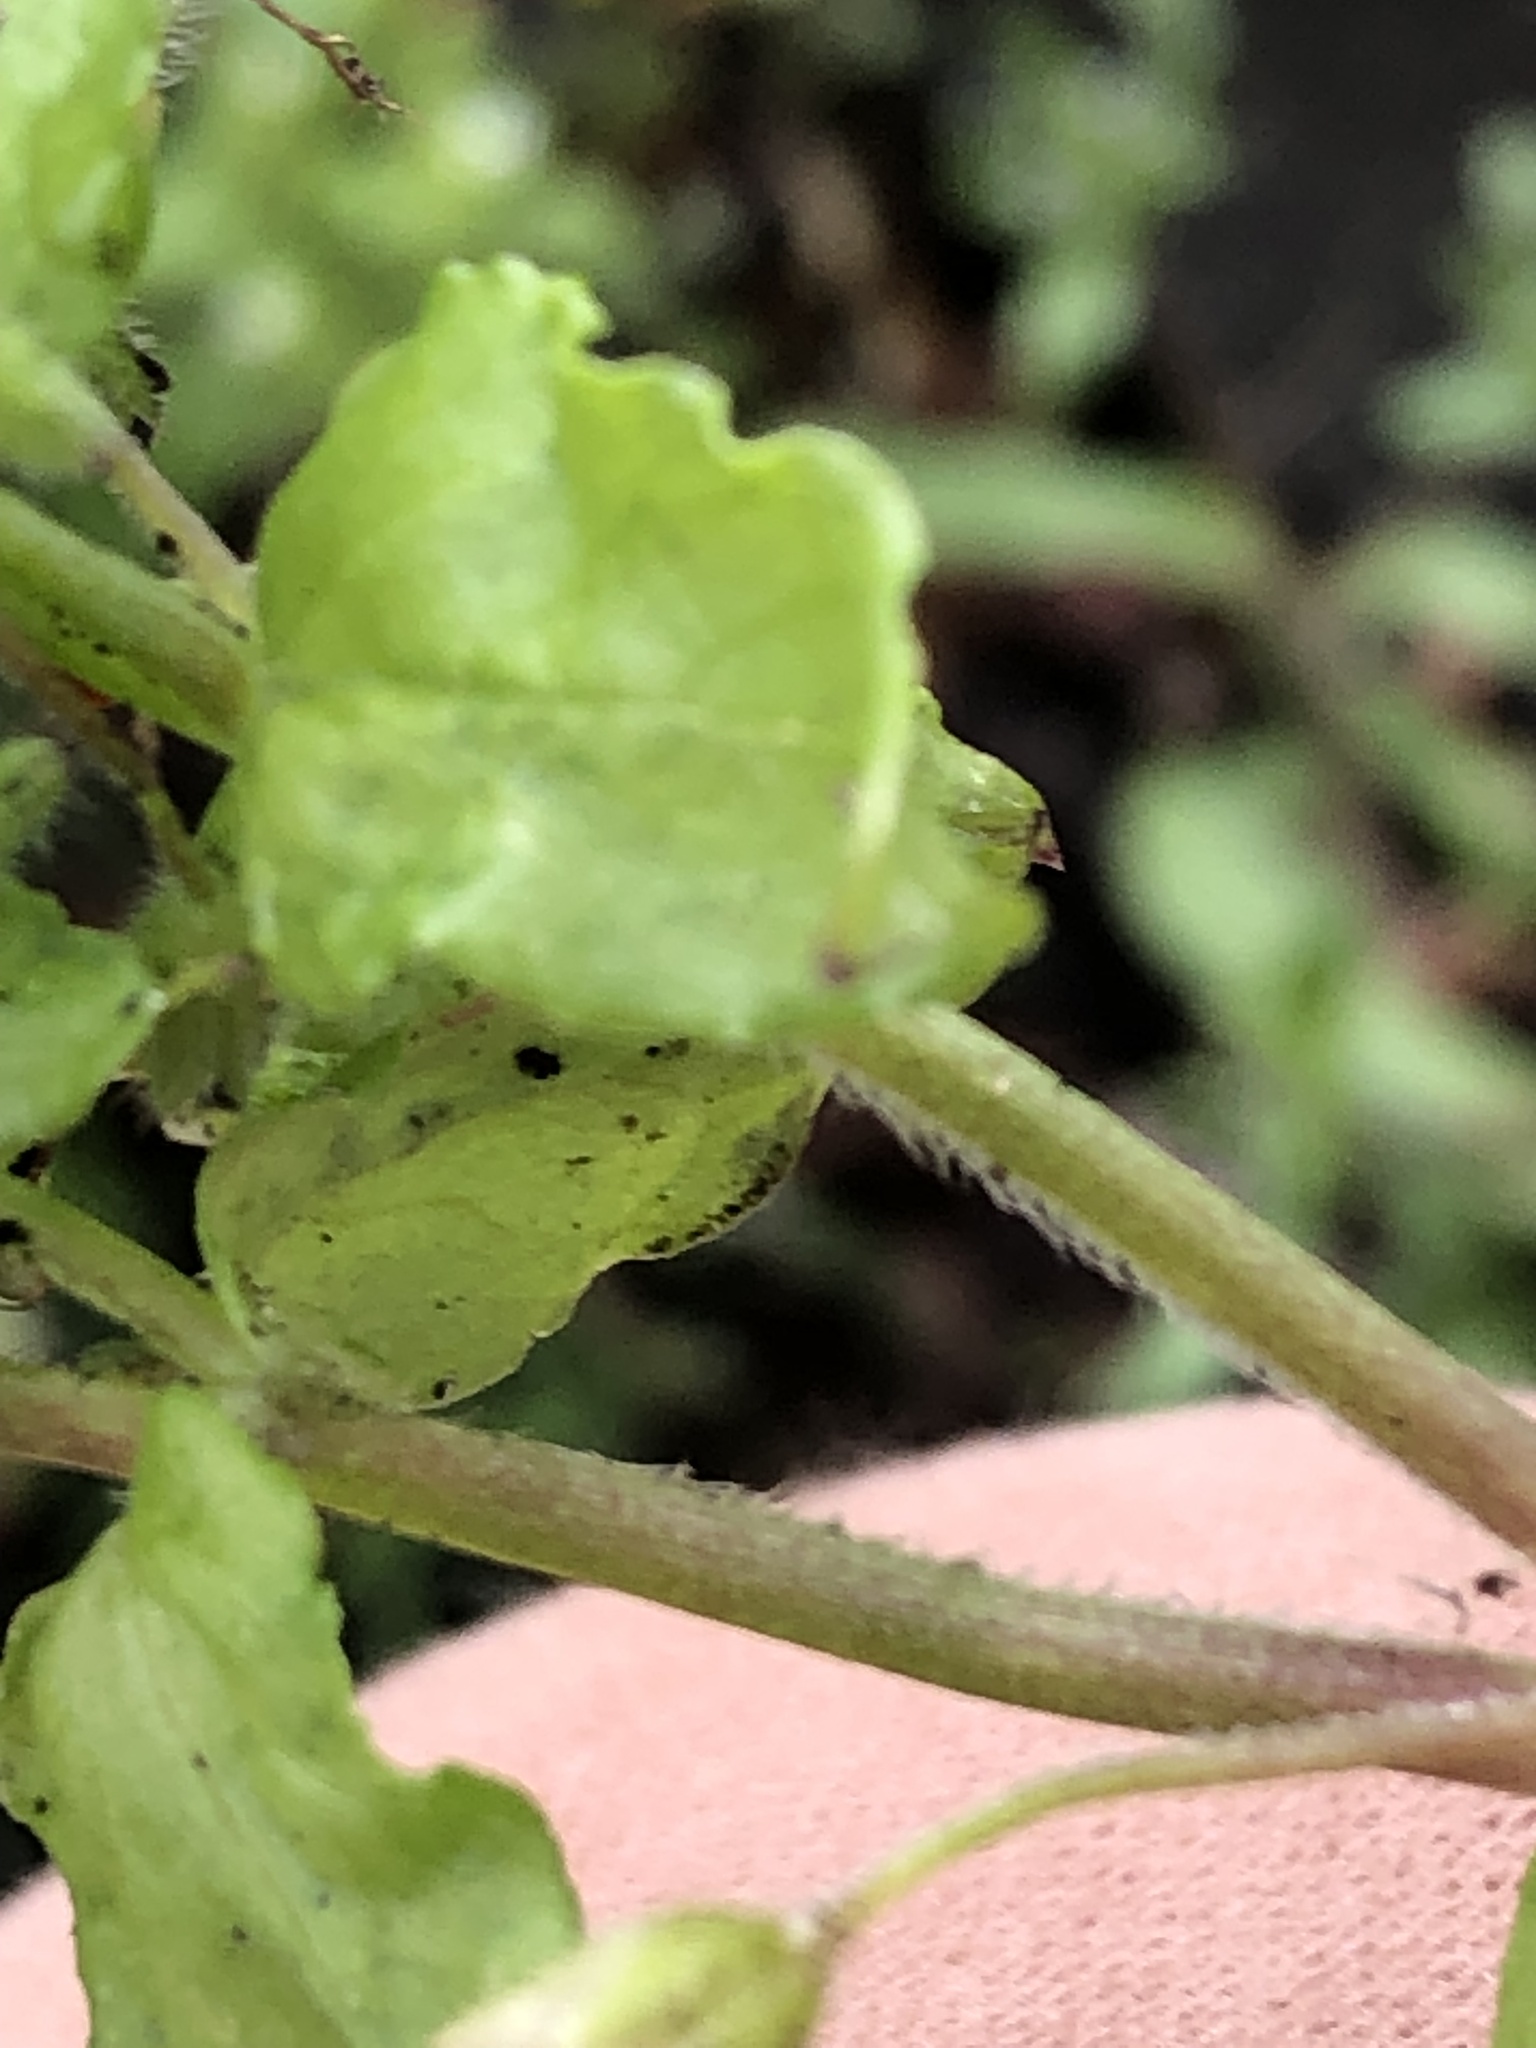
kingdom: Plantae
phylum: Tracheophyta
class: Magnoliopsida
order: Caryophyllales
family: Caryophyllaceae
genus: Stellaria
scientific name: Stellaria media
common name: Common chickweed
